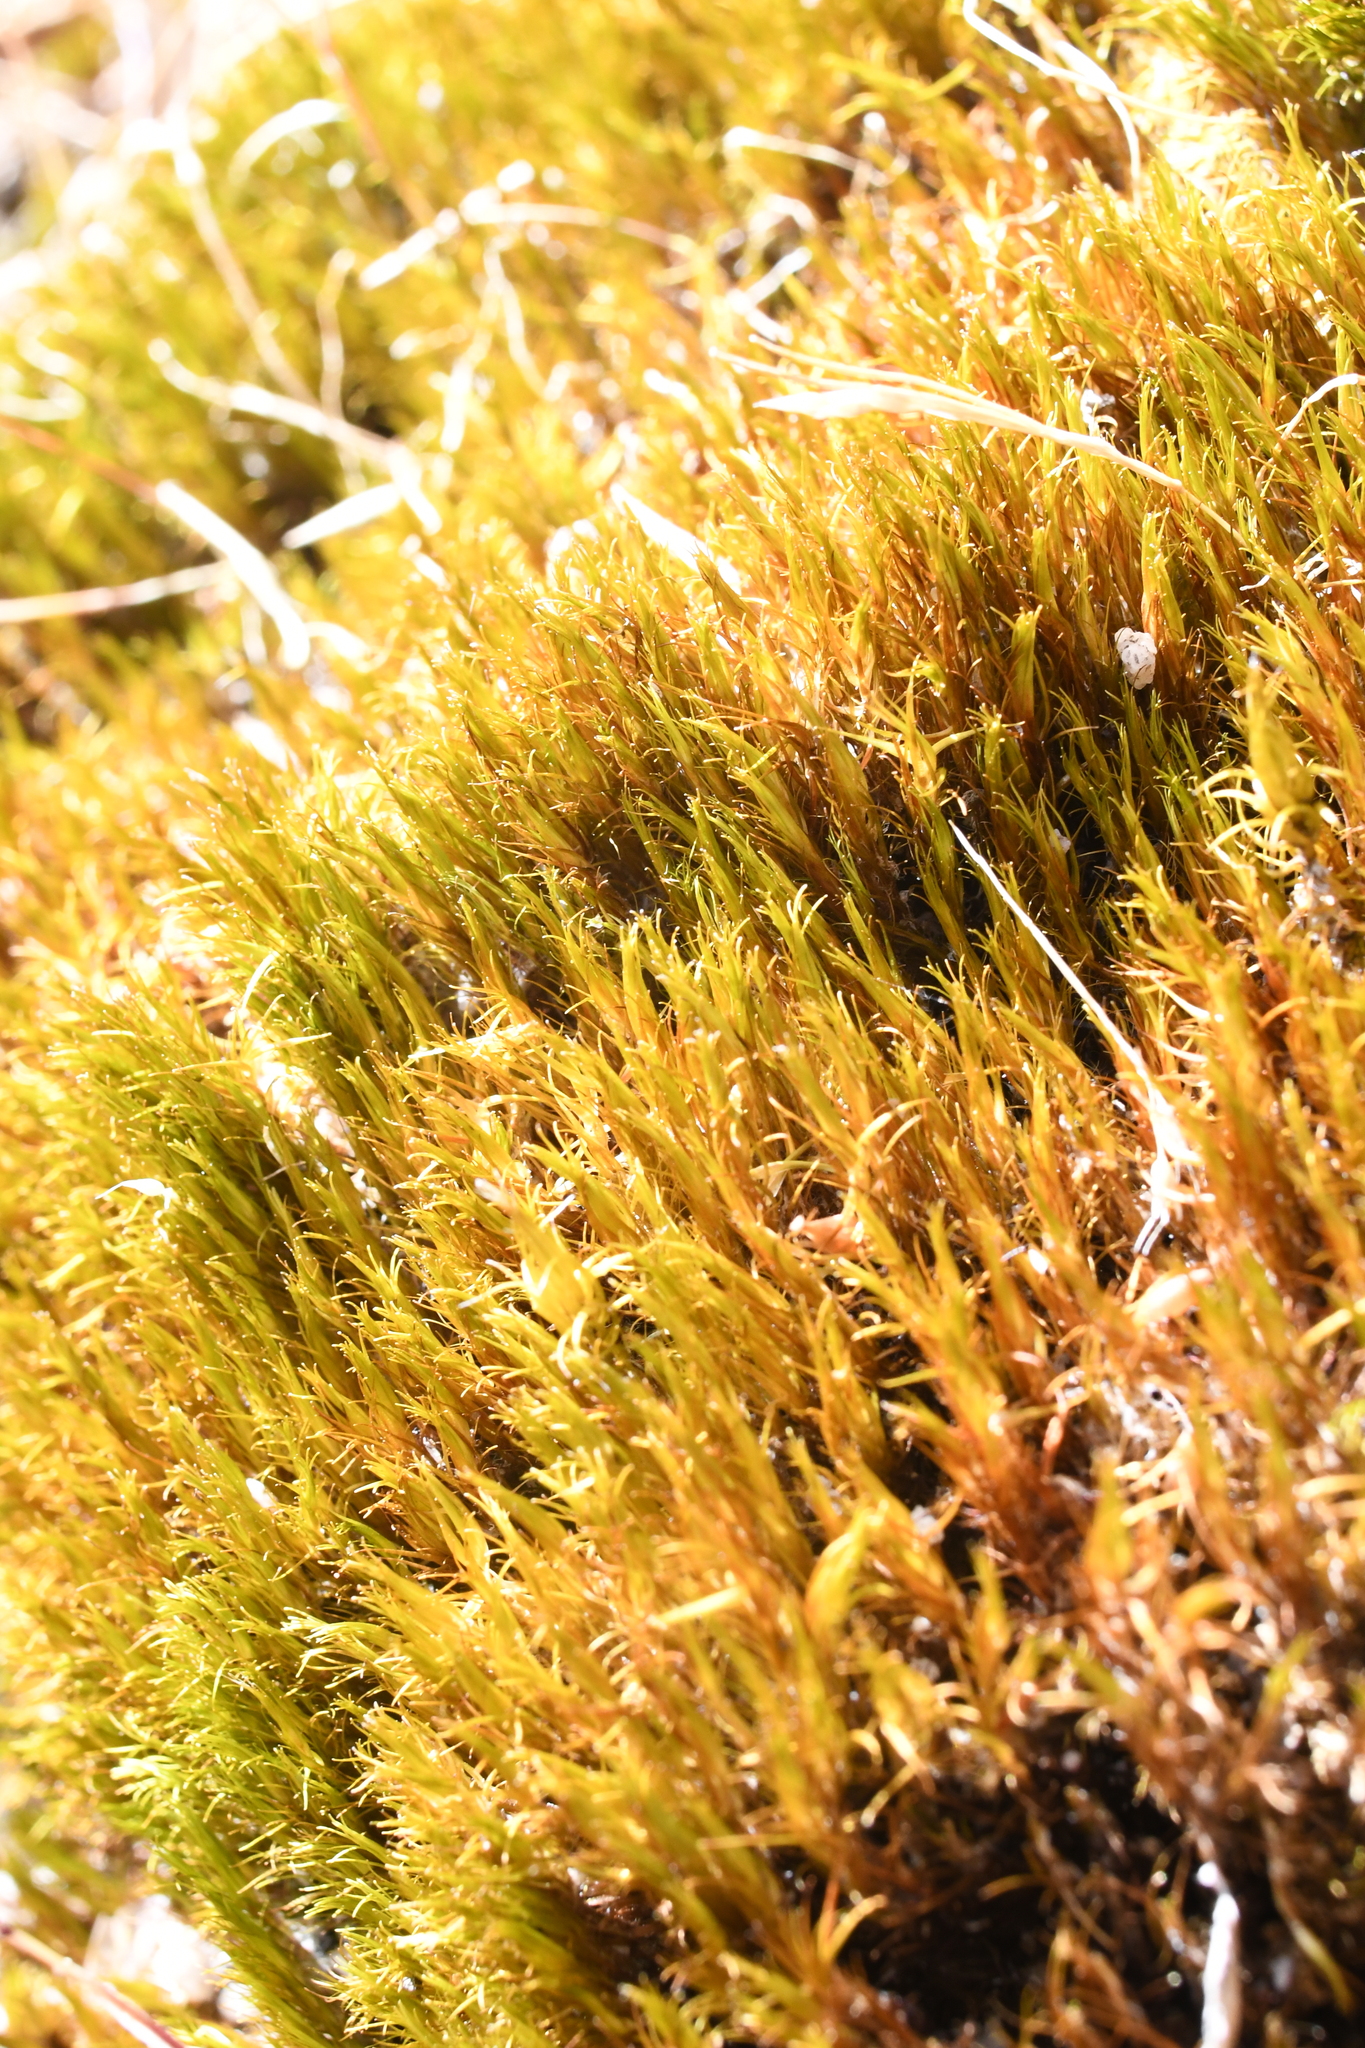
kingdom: Plantae
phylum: Bryophyta
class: Bryopsida
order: Dicranales
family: Leucobryaceae
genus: Campylopus
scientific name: Campylopus pyriformis
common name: Dwarf swan-neck moss
